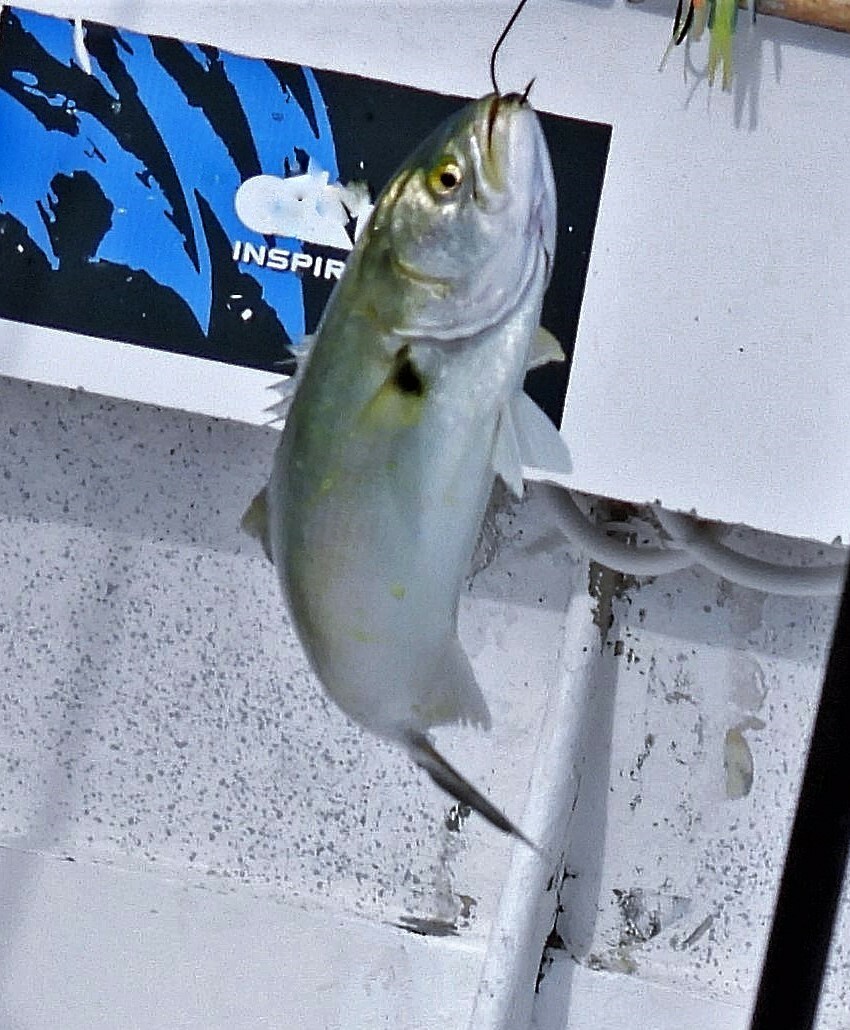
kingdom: Animalia
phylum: Chordata
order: Perciformes
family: Pomatomidae
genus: Pomatomus
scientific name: Pomatomus saltatrix
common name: Bluefish
